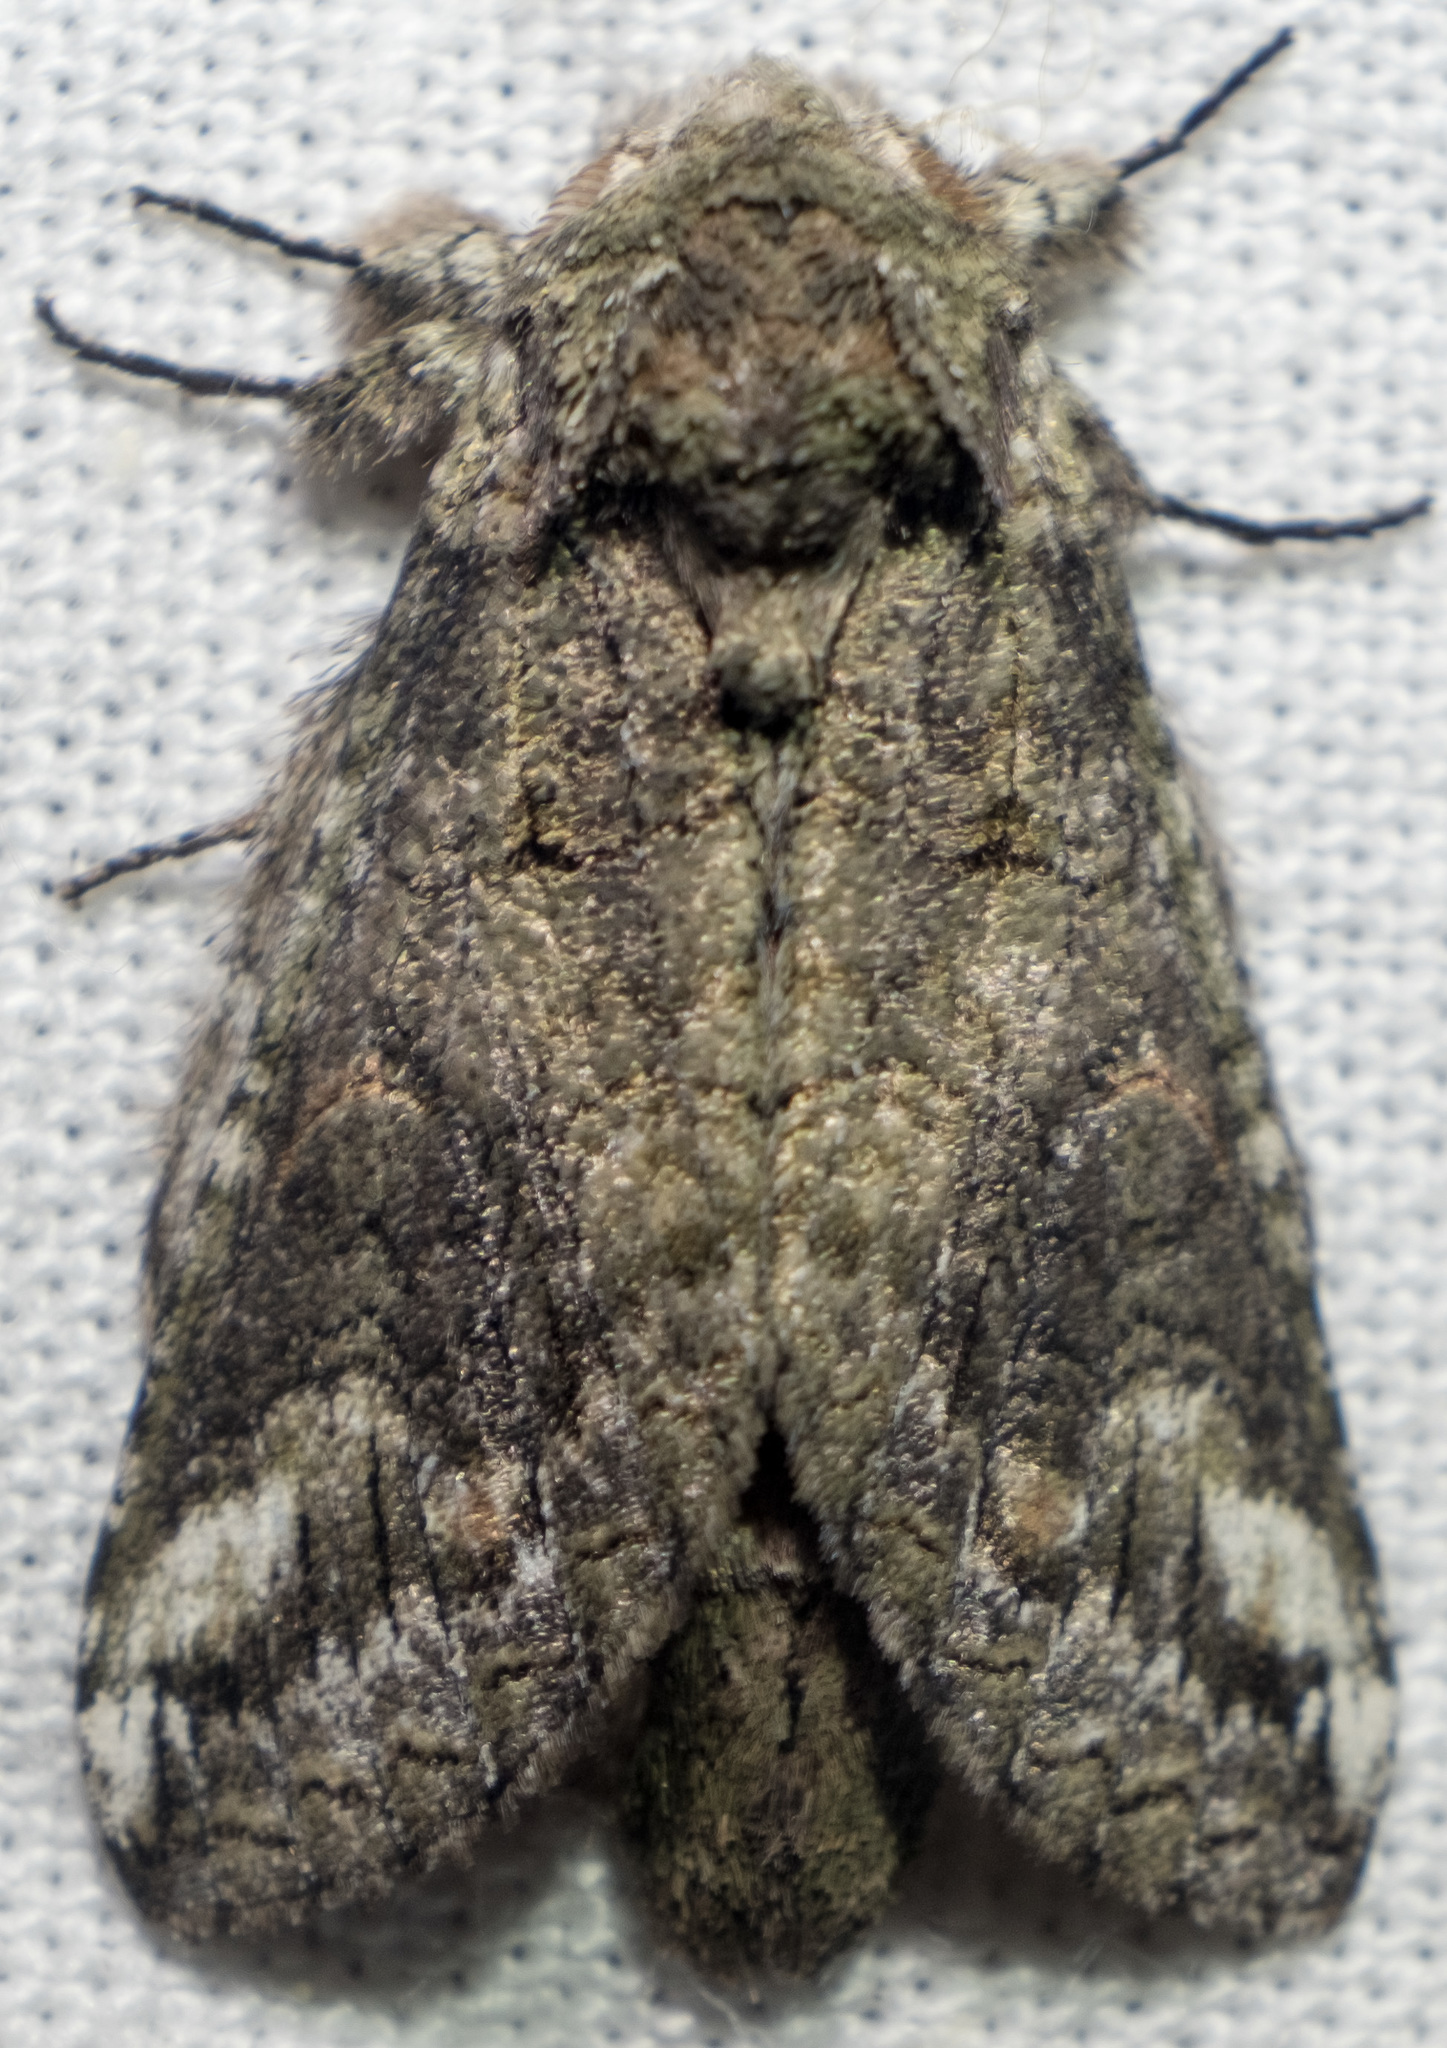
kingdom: Animalia
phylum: Arthropoda
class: Insecta
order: Lepidoptera
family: Notodontidae
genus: Heterocampa
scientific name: Heterocampa obliqua
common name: Oblique heterocampa
